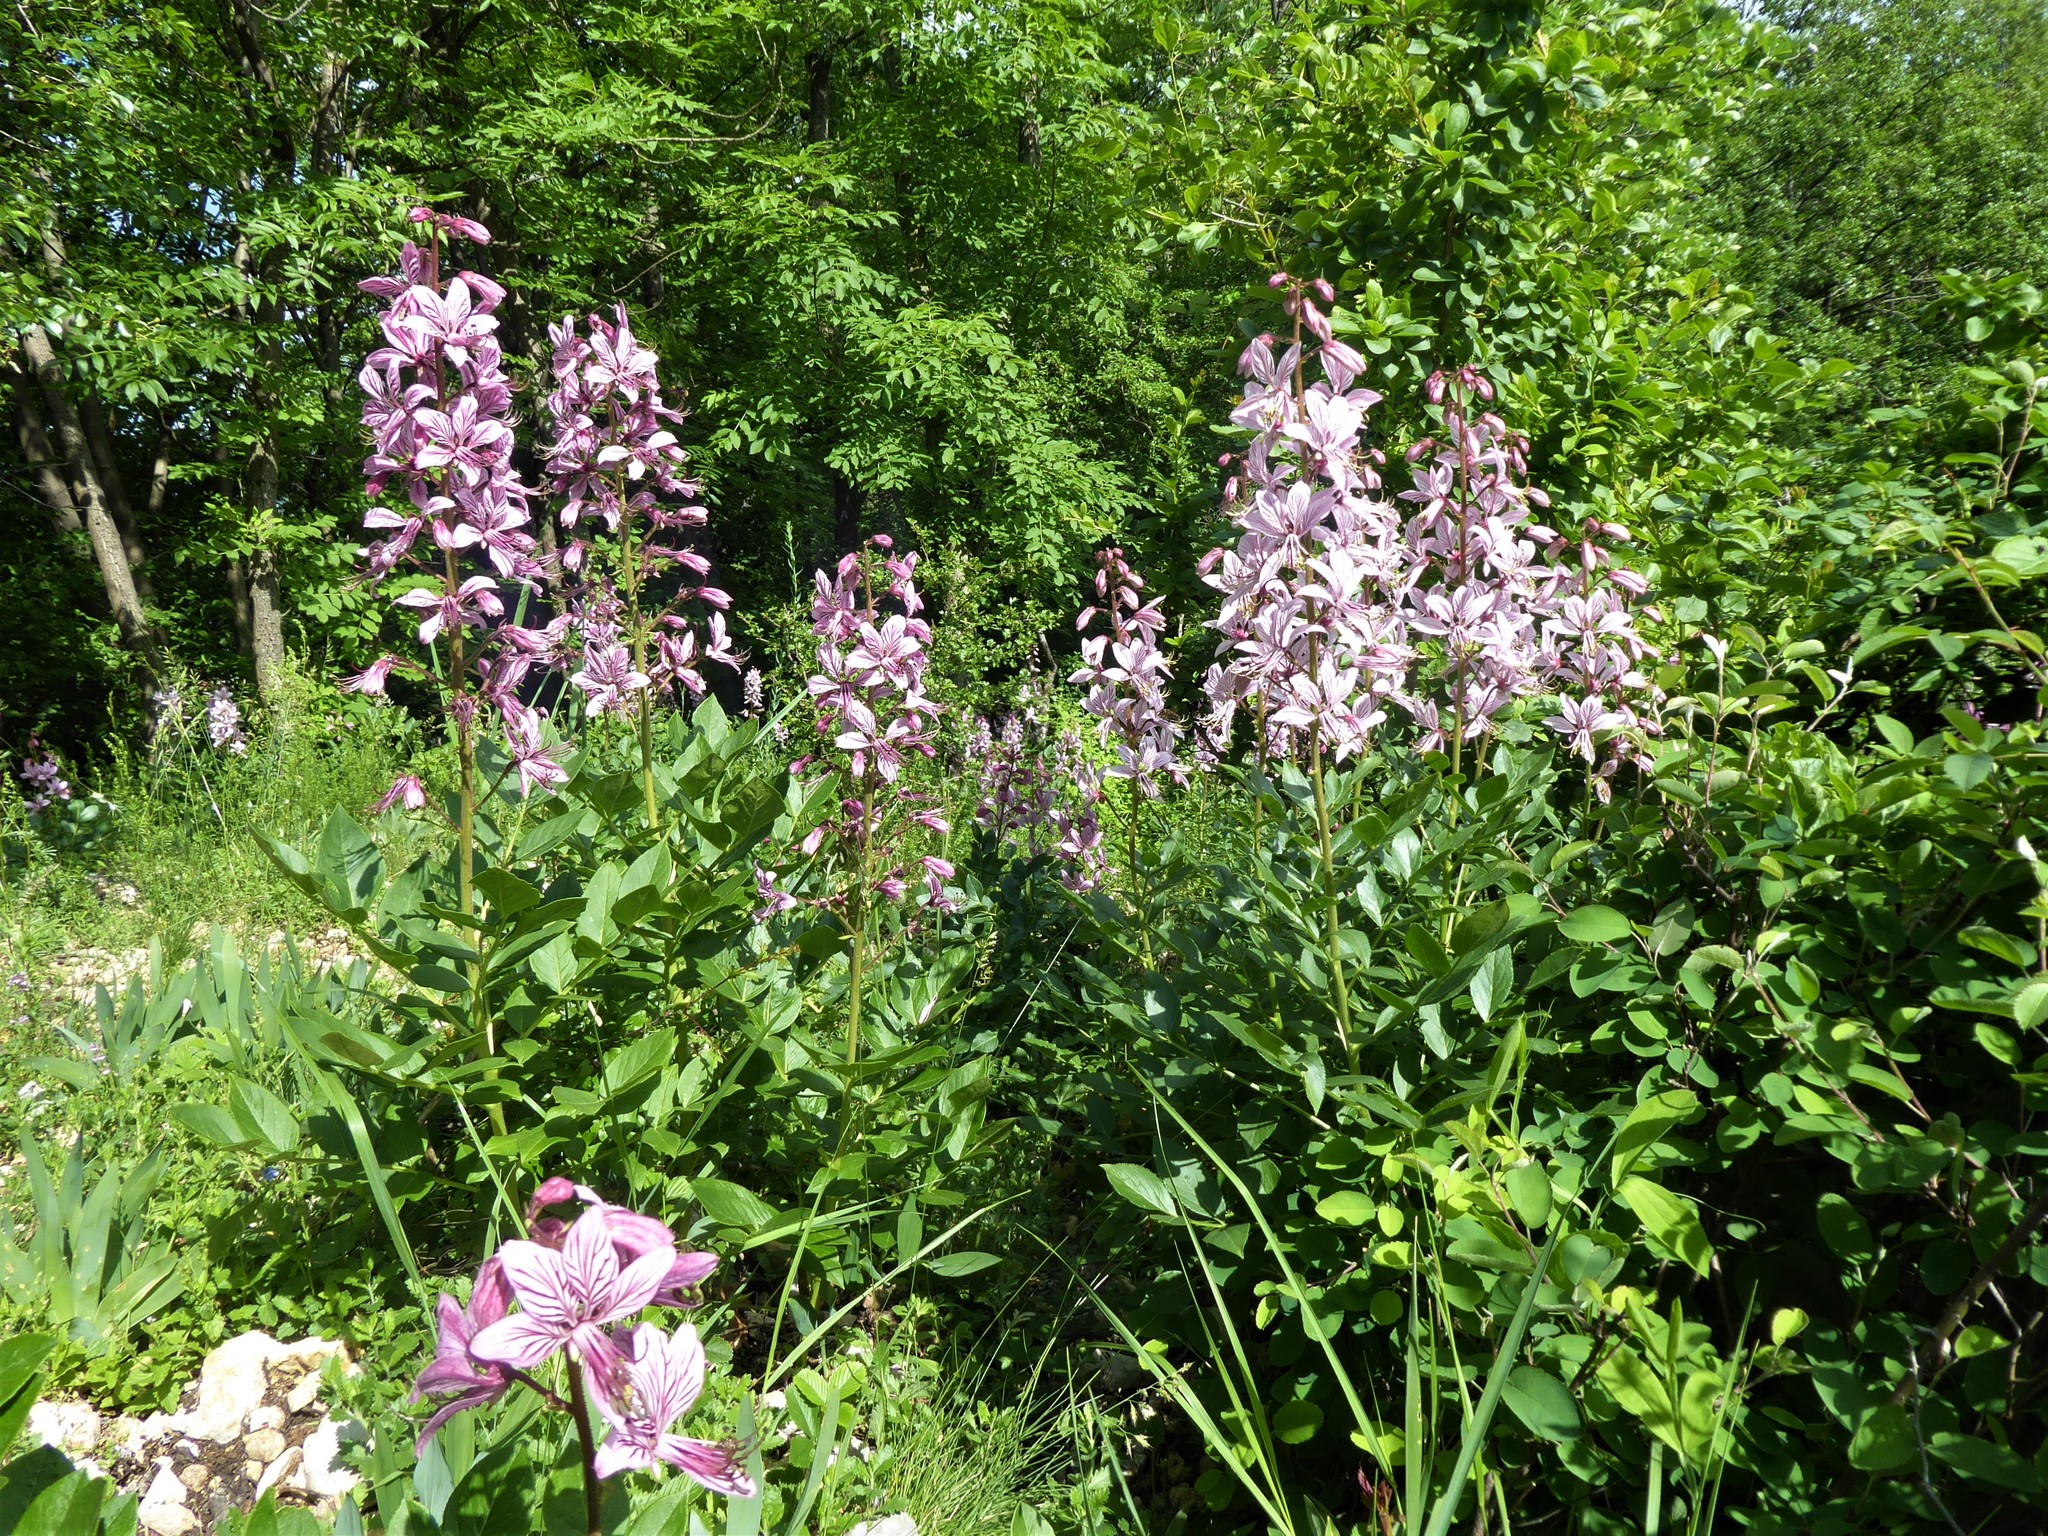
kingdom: Plantae
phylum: Tracheophyta
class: Magnoliopsida
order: Sapindales
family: Rutaceae
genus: Dictamnus
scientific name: Dictamnus albus
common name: Gasplant
